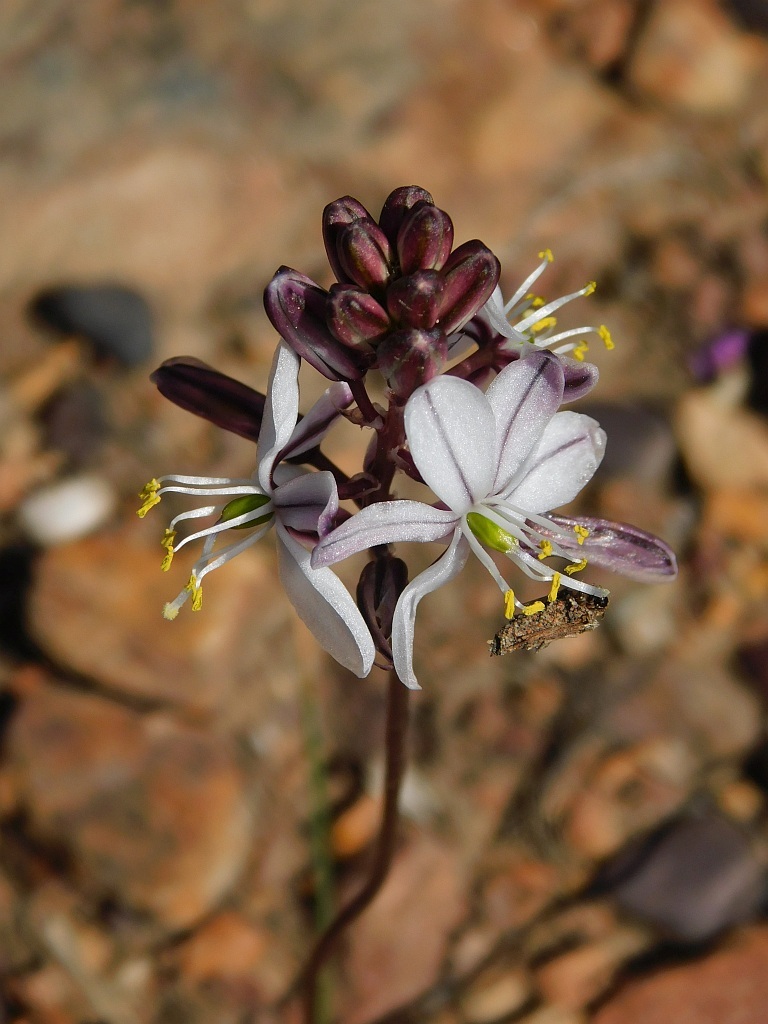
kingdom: Plantae
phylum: Tracheophyta
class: Liliopsida
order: Asparagales
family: Asparagaceae
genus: Drimia
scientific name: Drimia exuviata
